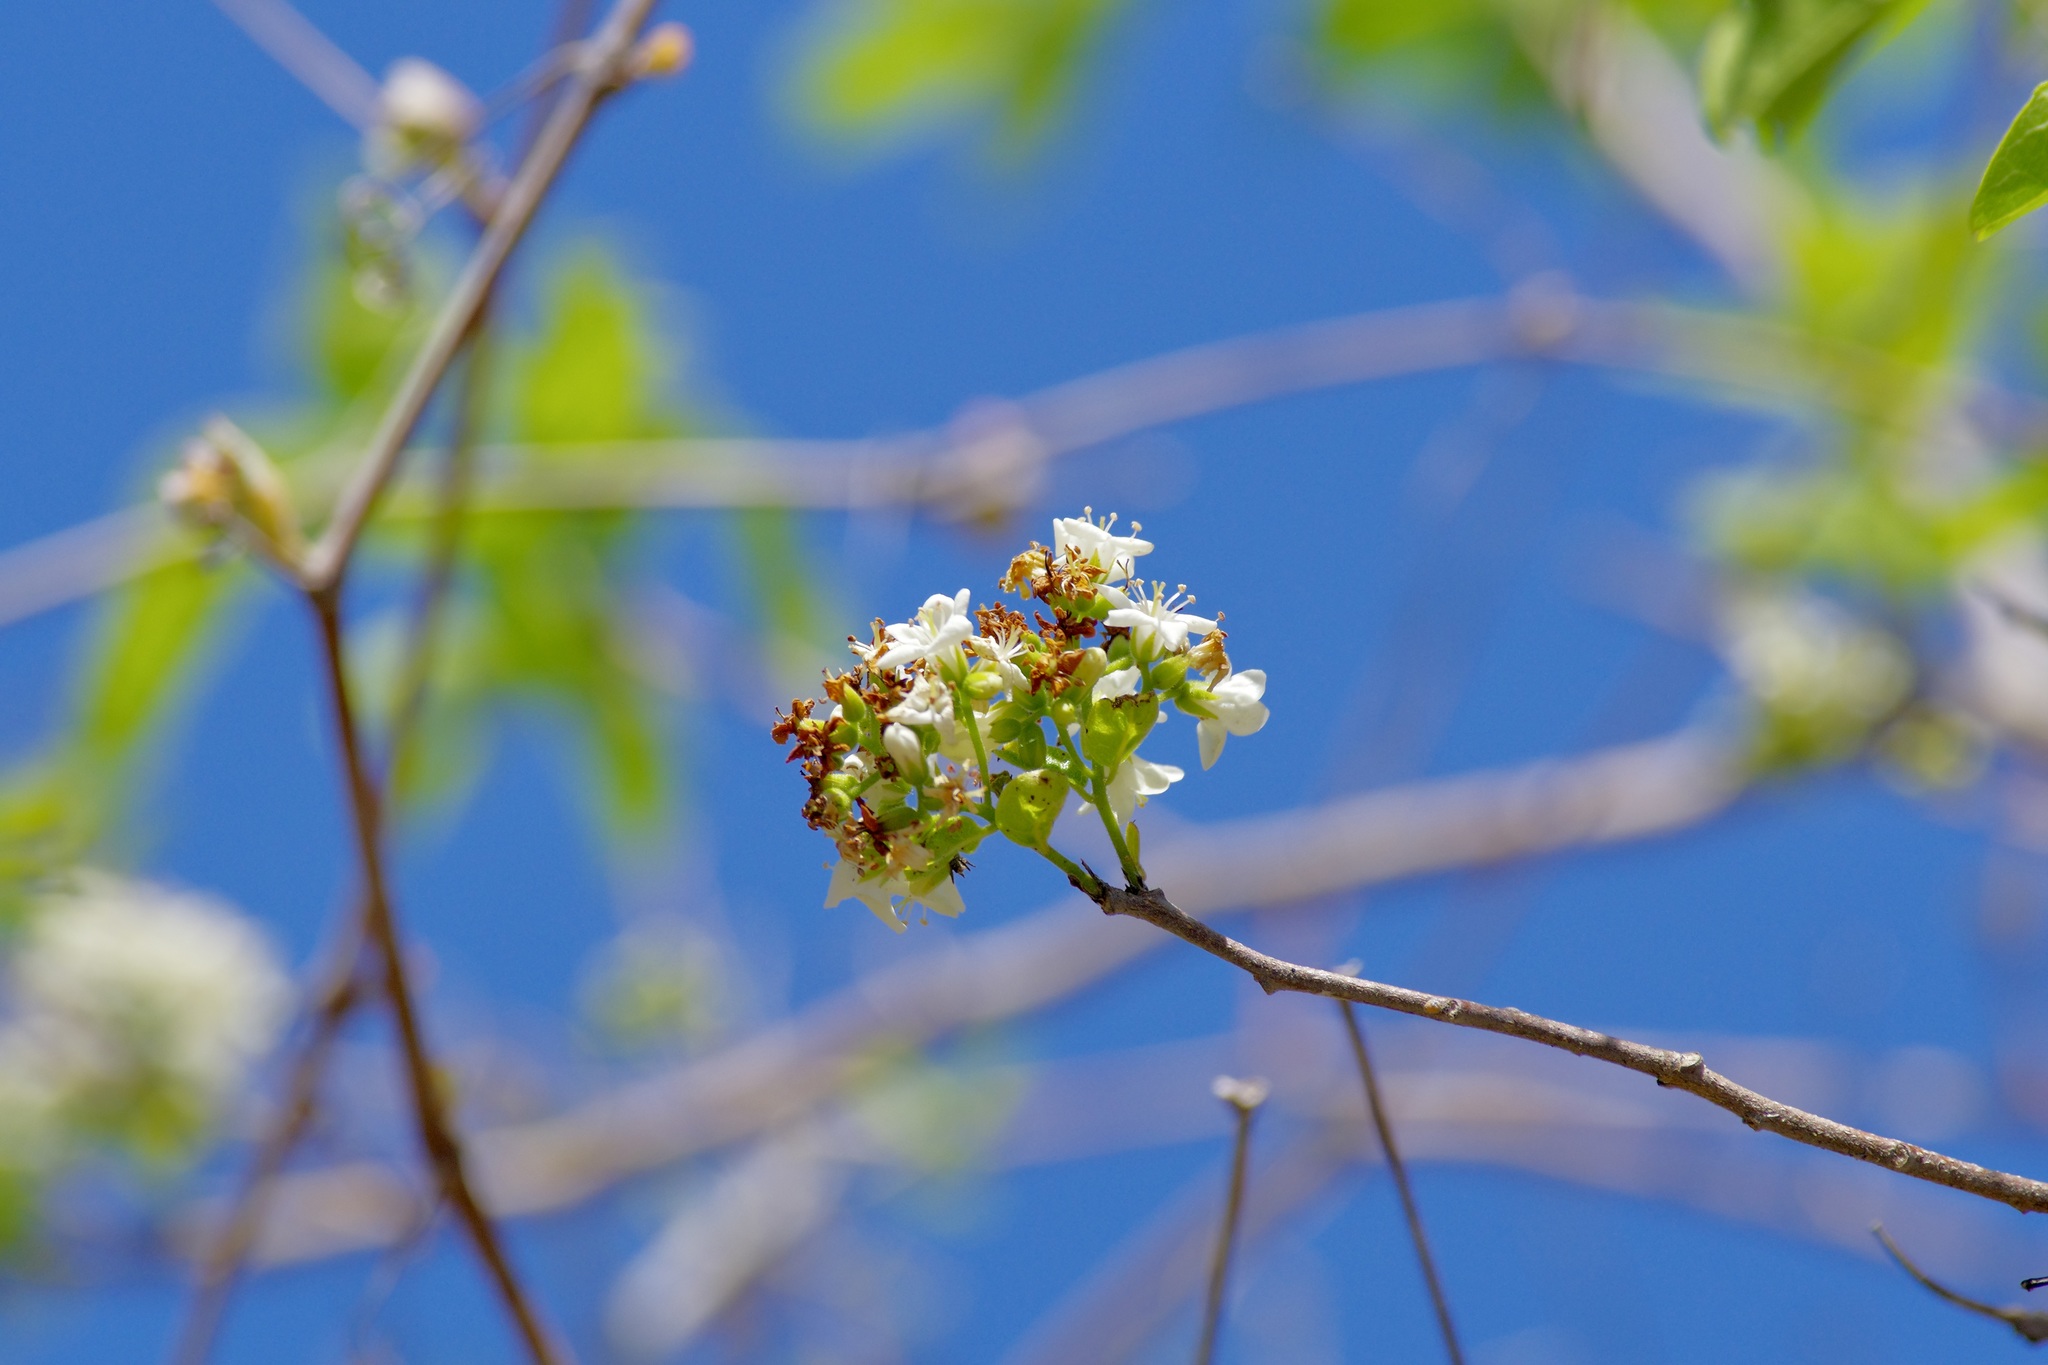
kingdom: Plantae
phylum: Tracheophyta
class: Magnoliopsida
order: Boraginales
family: Ehretiaceae
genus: Ehretia
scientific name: Ehretia anacua
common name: Sugarberry
